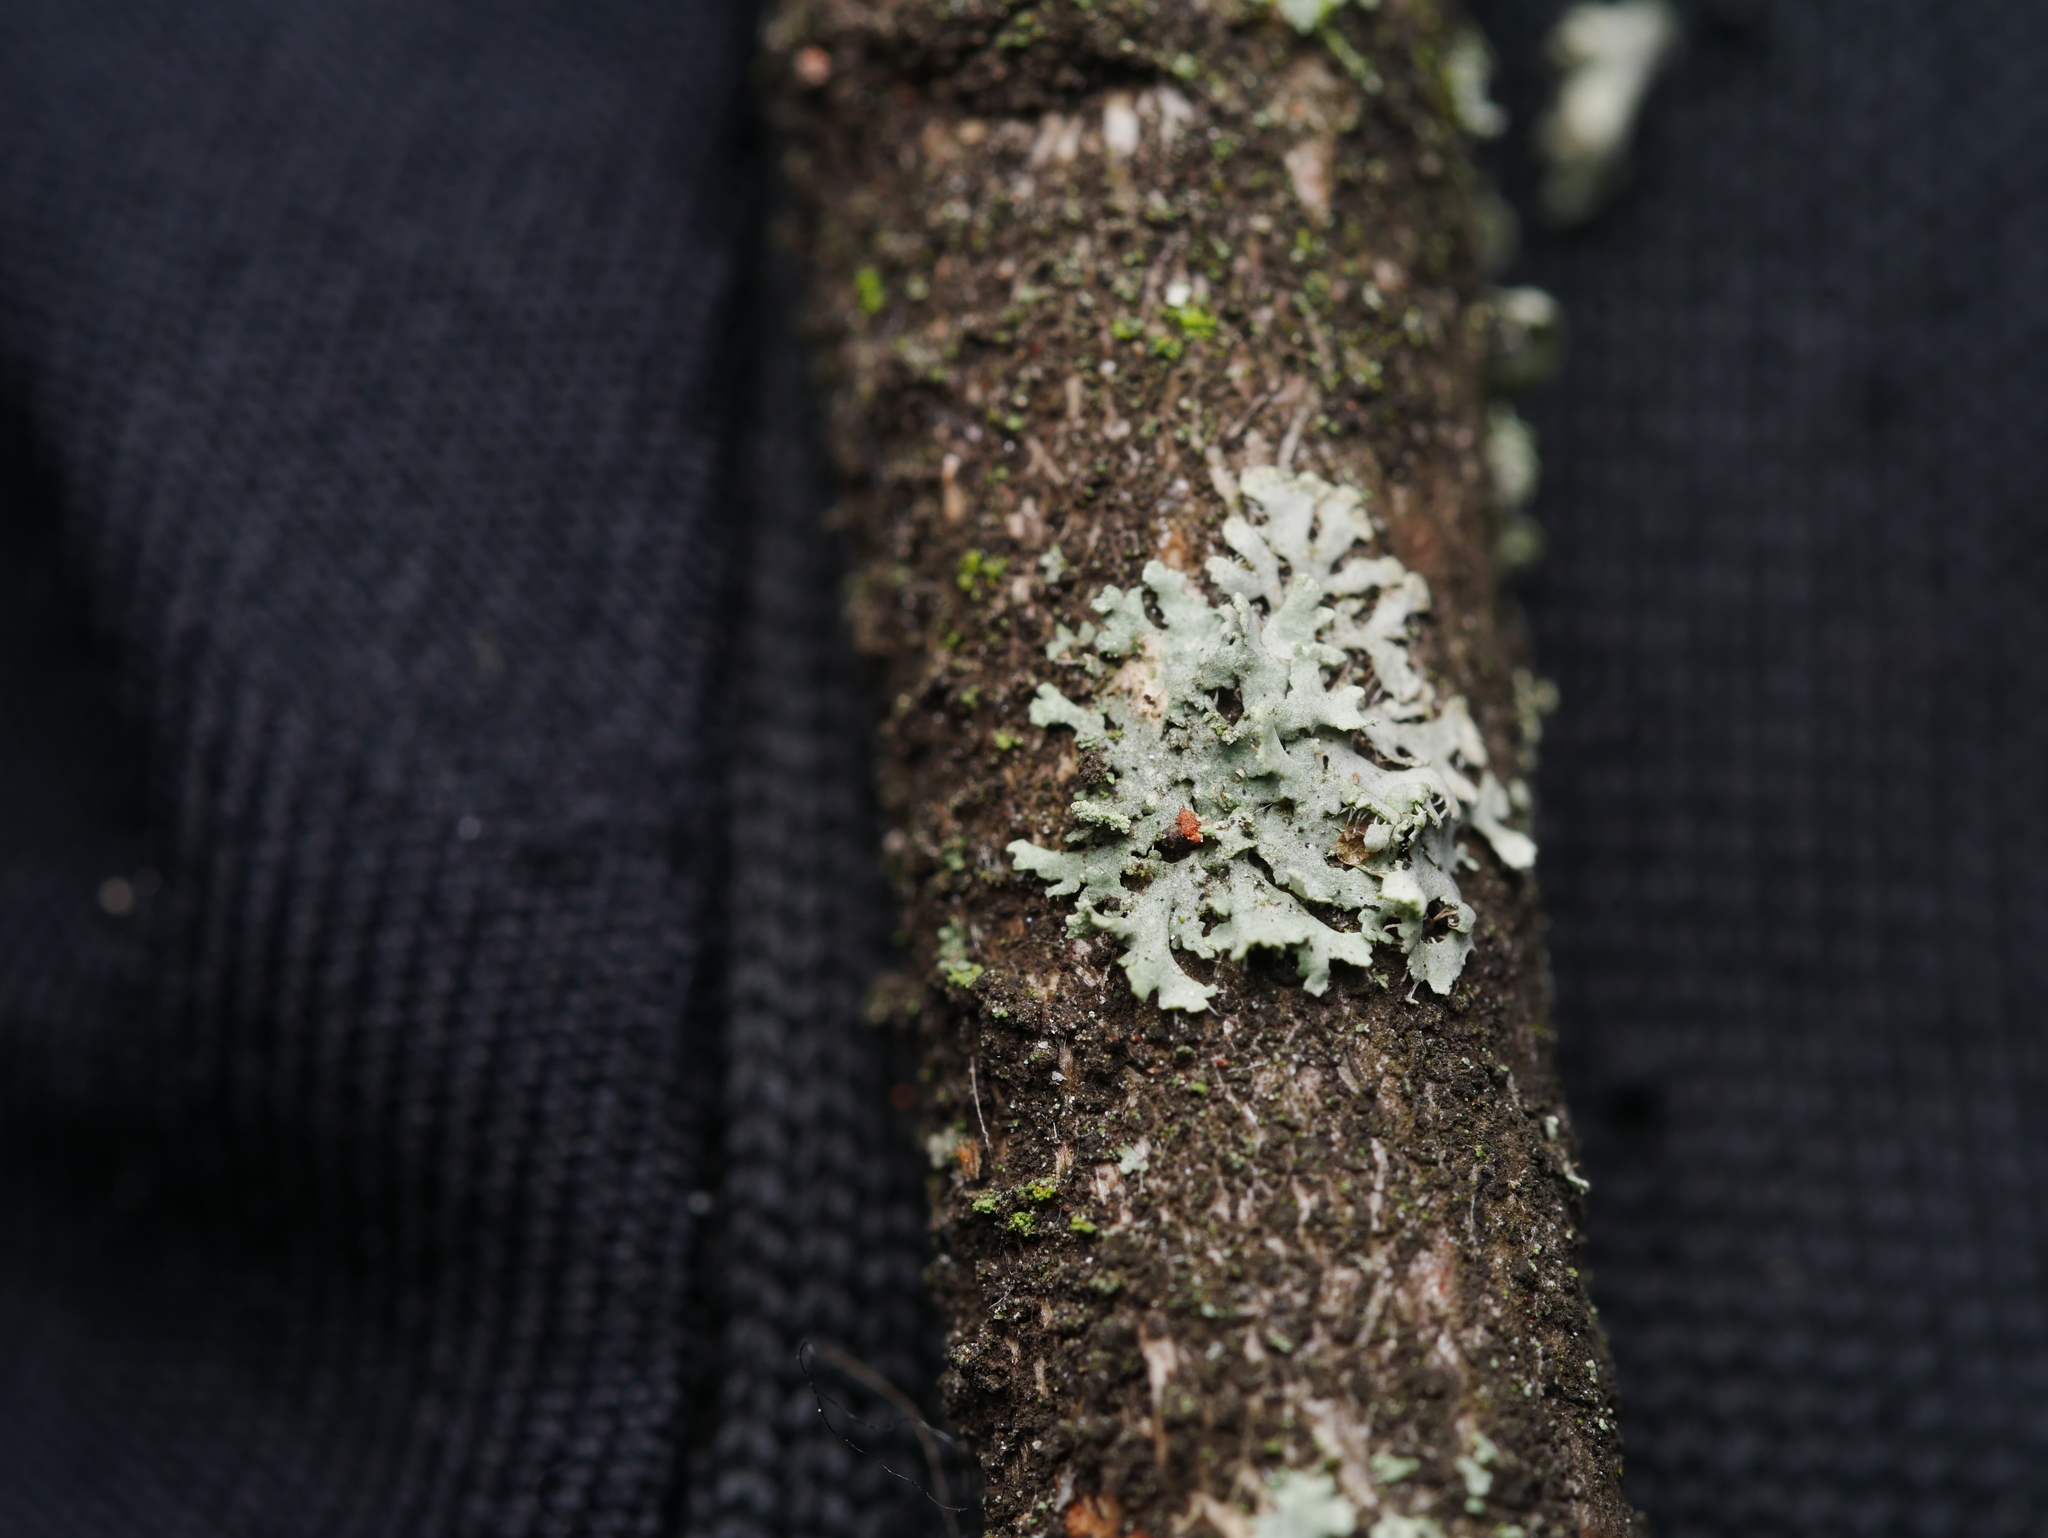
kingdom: Fungi
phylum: Ascomycota
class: Lecanoromycetes
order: Caliciales
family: Physciaceae
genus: Physcia
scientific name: Physcia tenella
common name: Fringed rosette lichen
